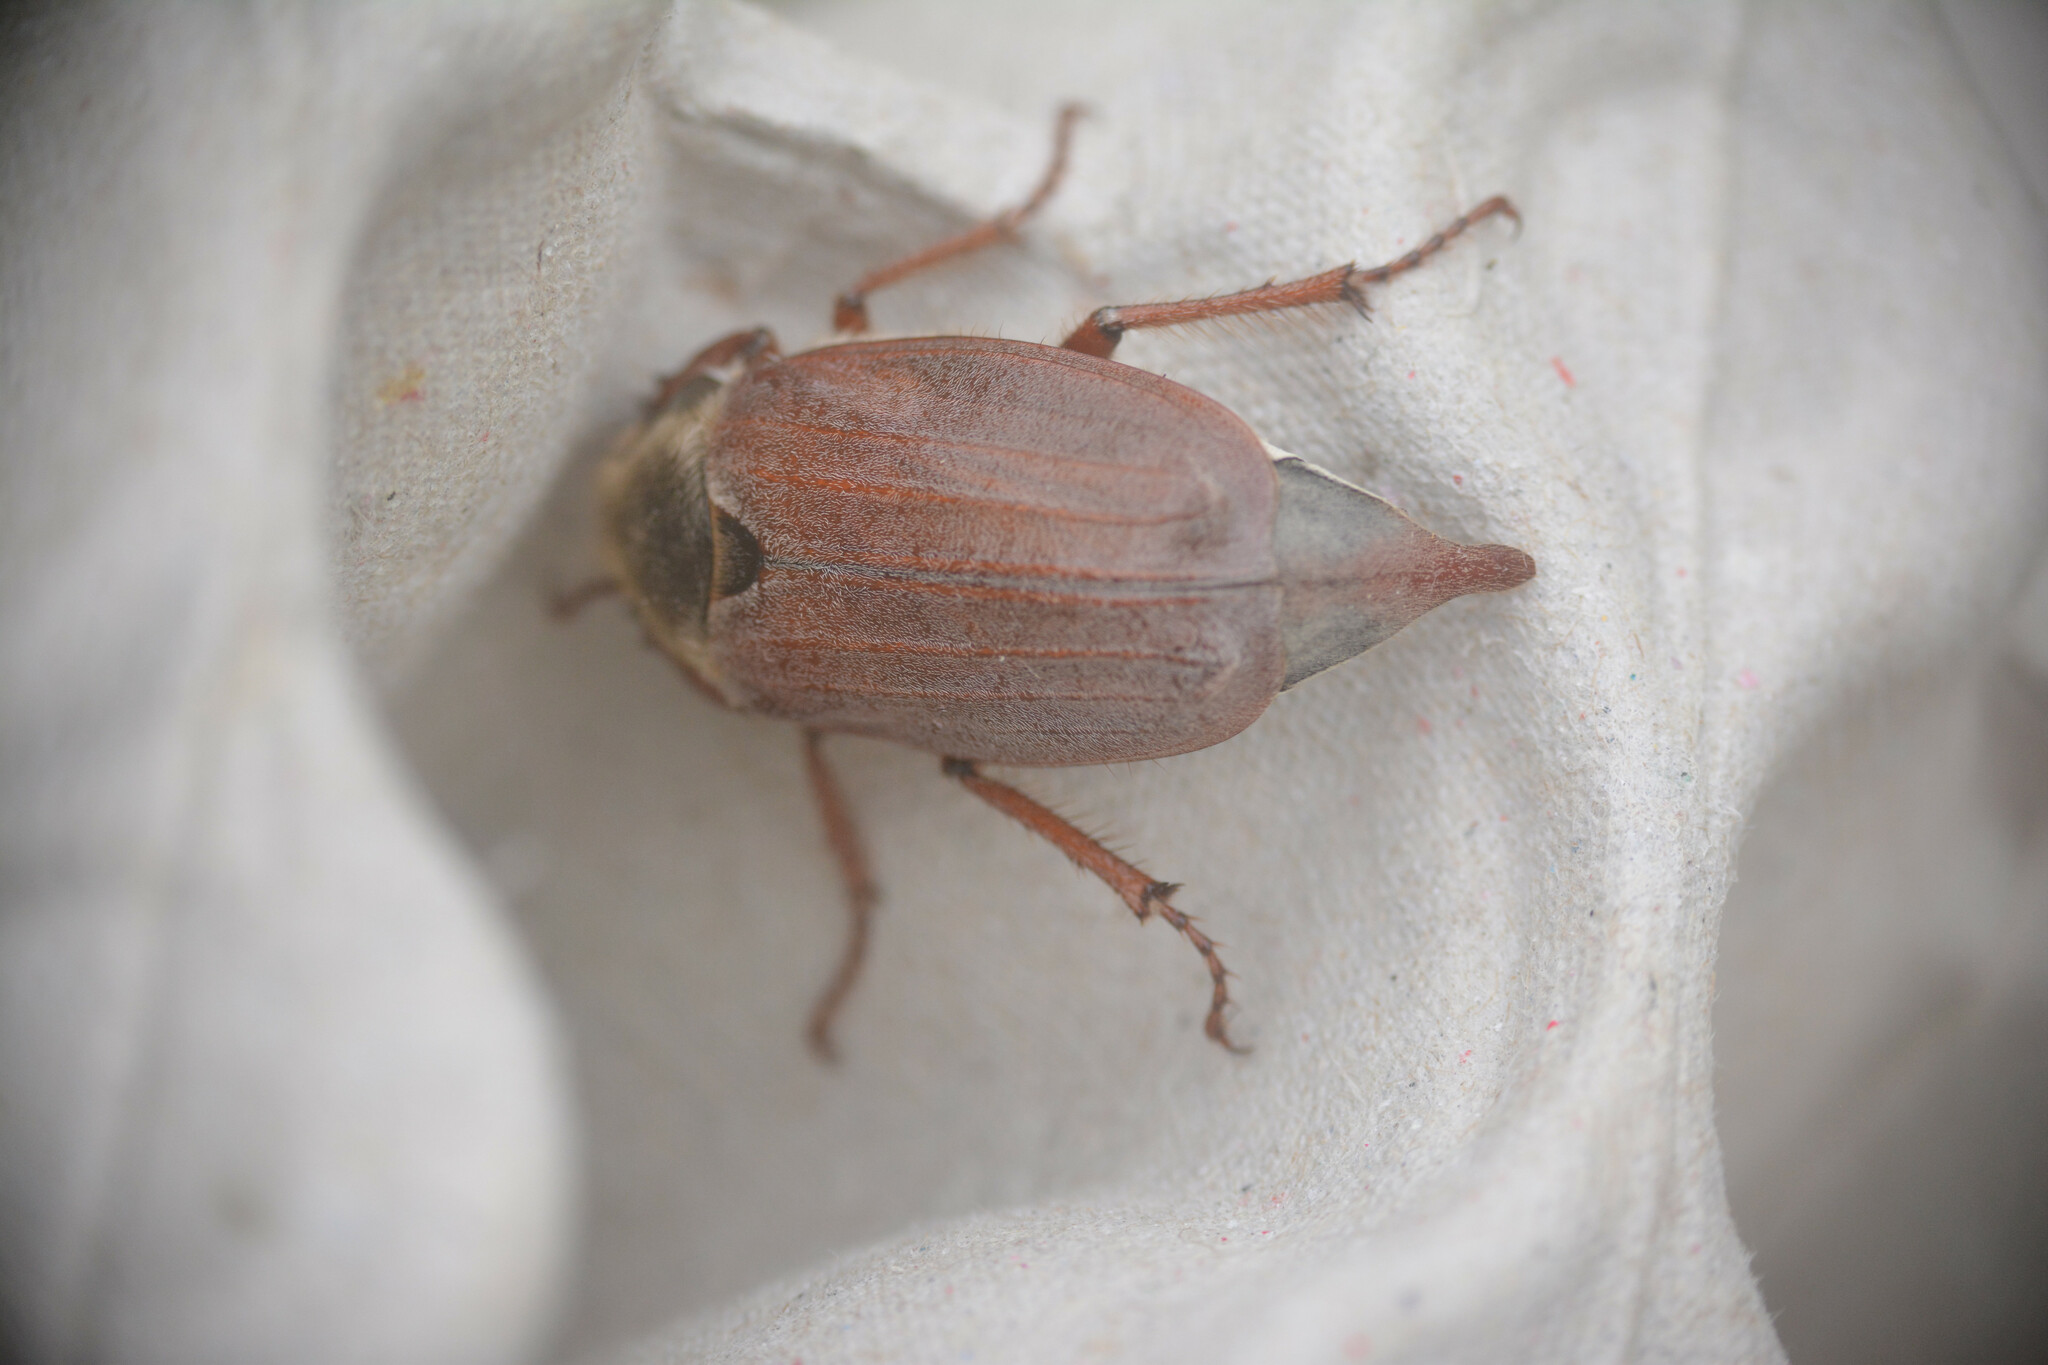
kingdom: Animalia
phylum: Arthropoda
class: Insecta
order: Coleoptera
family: Scarabaeidae
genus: Melolontha
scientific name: Melolontha melolontha
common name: Cockchafer maybeetle
